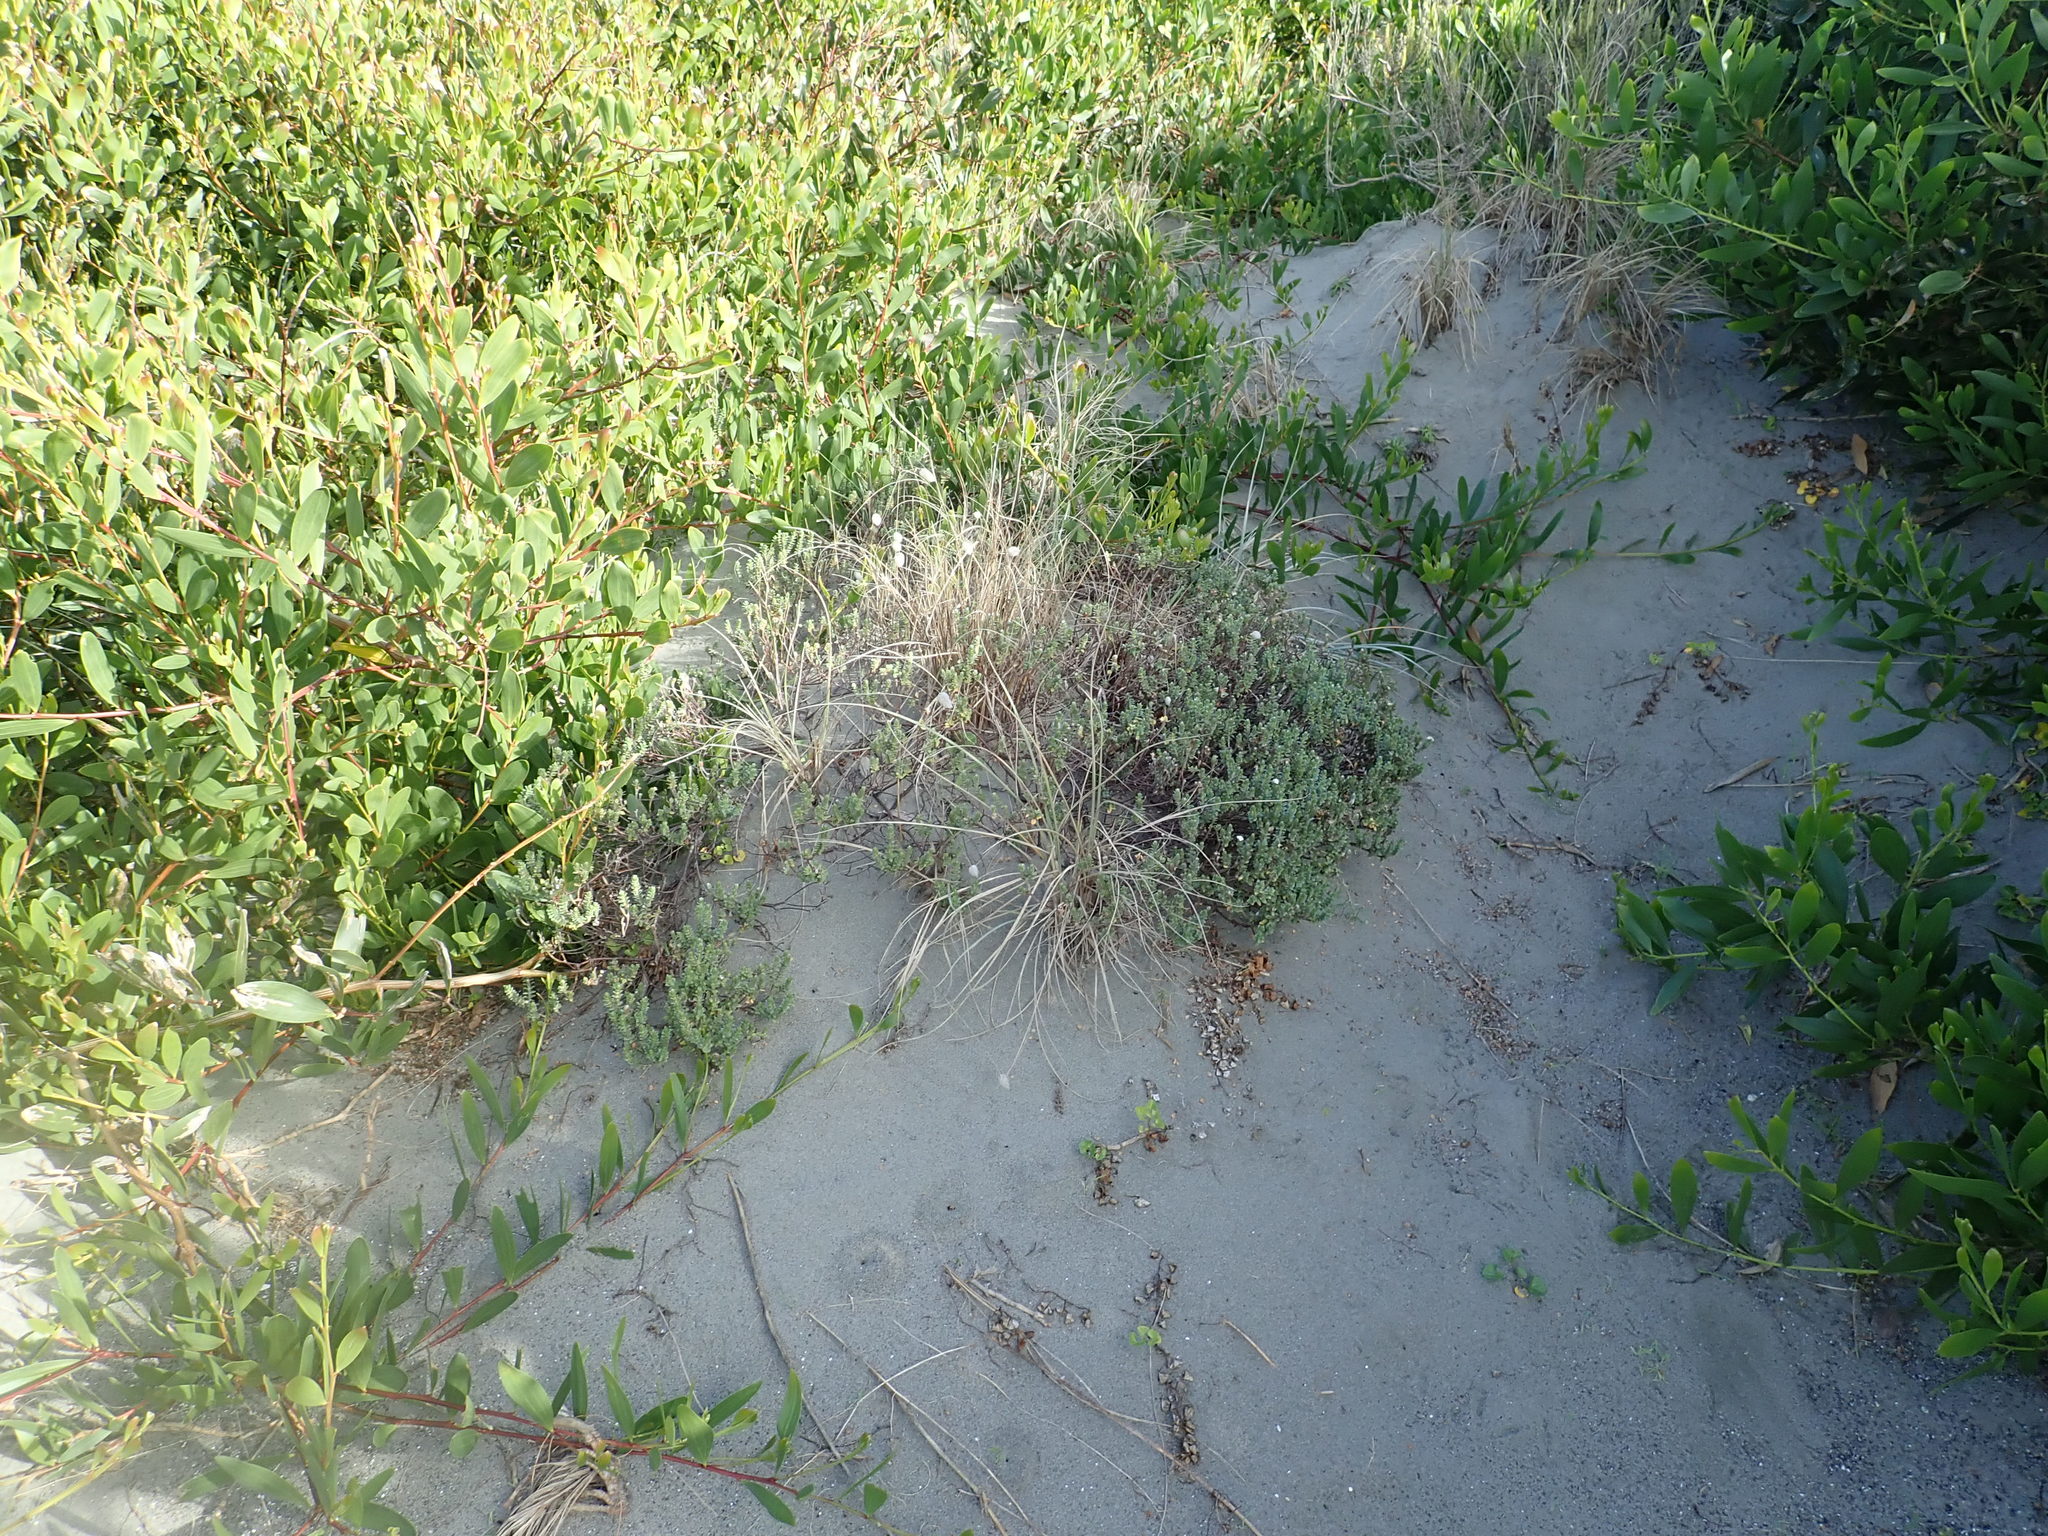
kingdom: Plantae
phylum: Tracheophyta
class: Magnoliopsida
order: Malvales
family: Thymelaeaceae
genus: Pimelea
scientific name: Pimelea villosa
